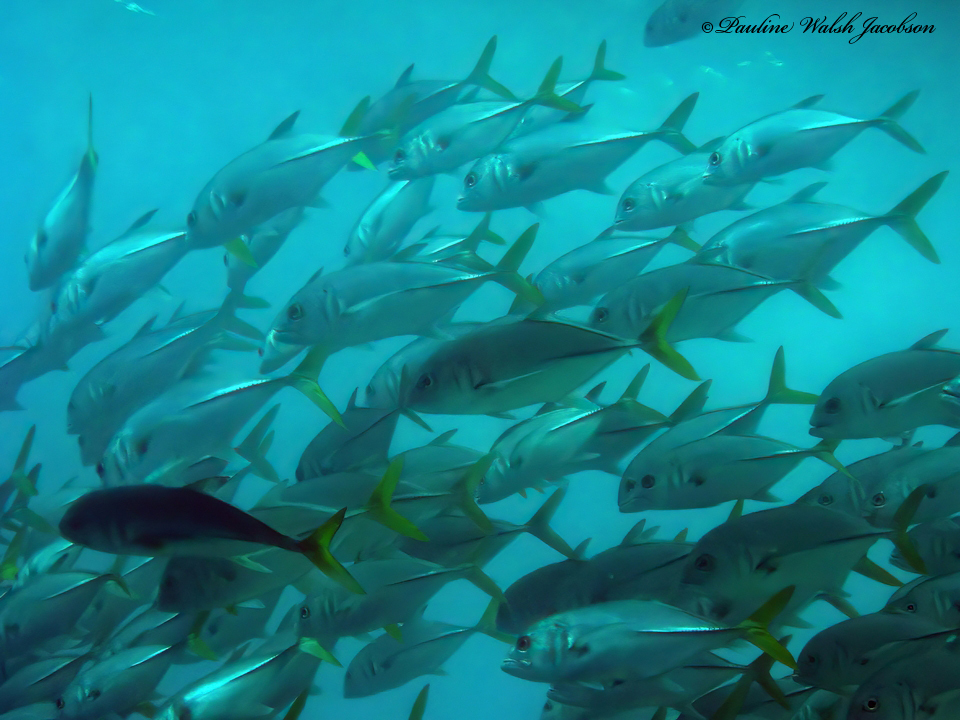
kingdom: Animalia
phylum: Chordata
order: Perciformes
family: Carangidae
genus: Caranx
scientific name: Caranx latus
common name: Horse eye jack
